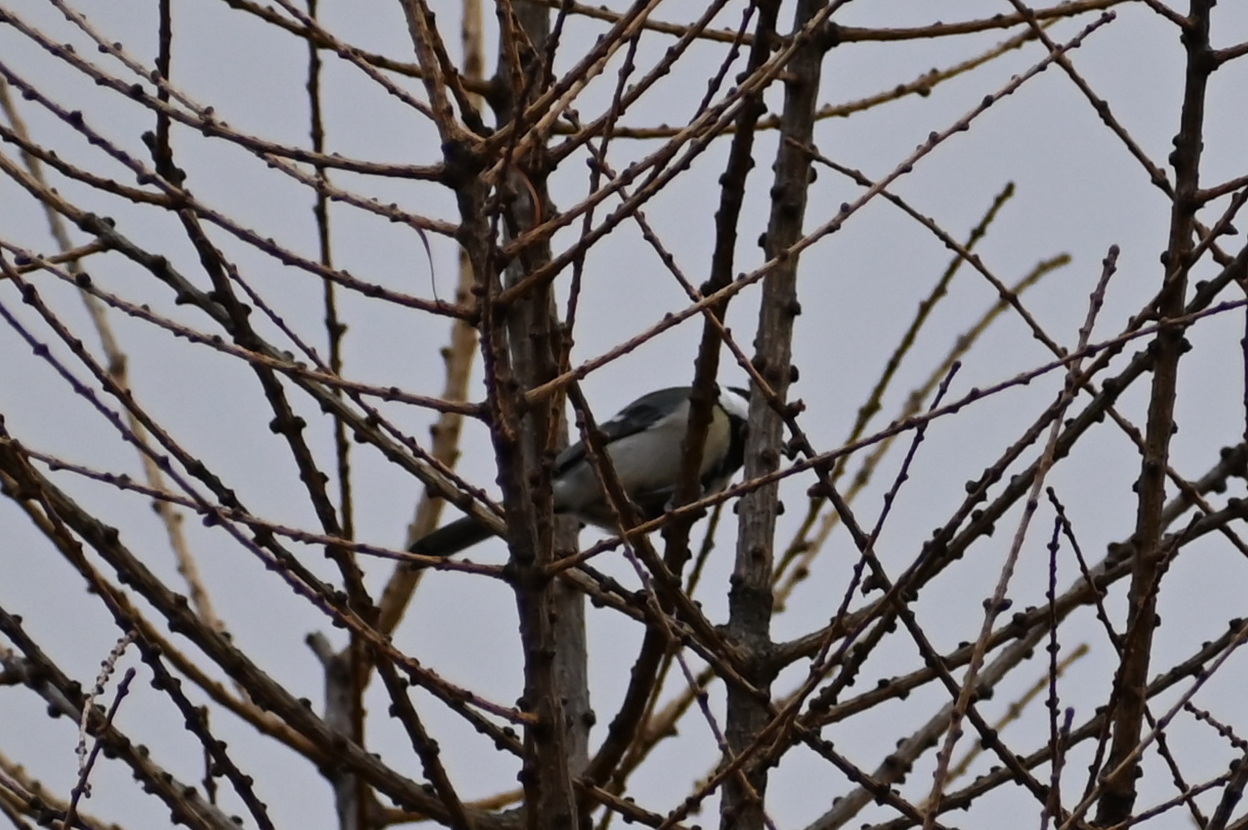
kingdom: Animalia
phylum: Chordata
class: Aves
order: Passeriformes
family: Paridae
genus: Periparus
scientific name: Periparus ater
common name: Coal tit
